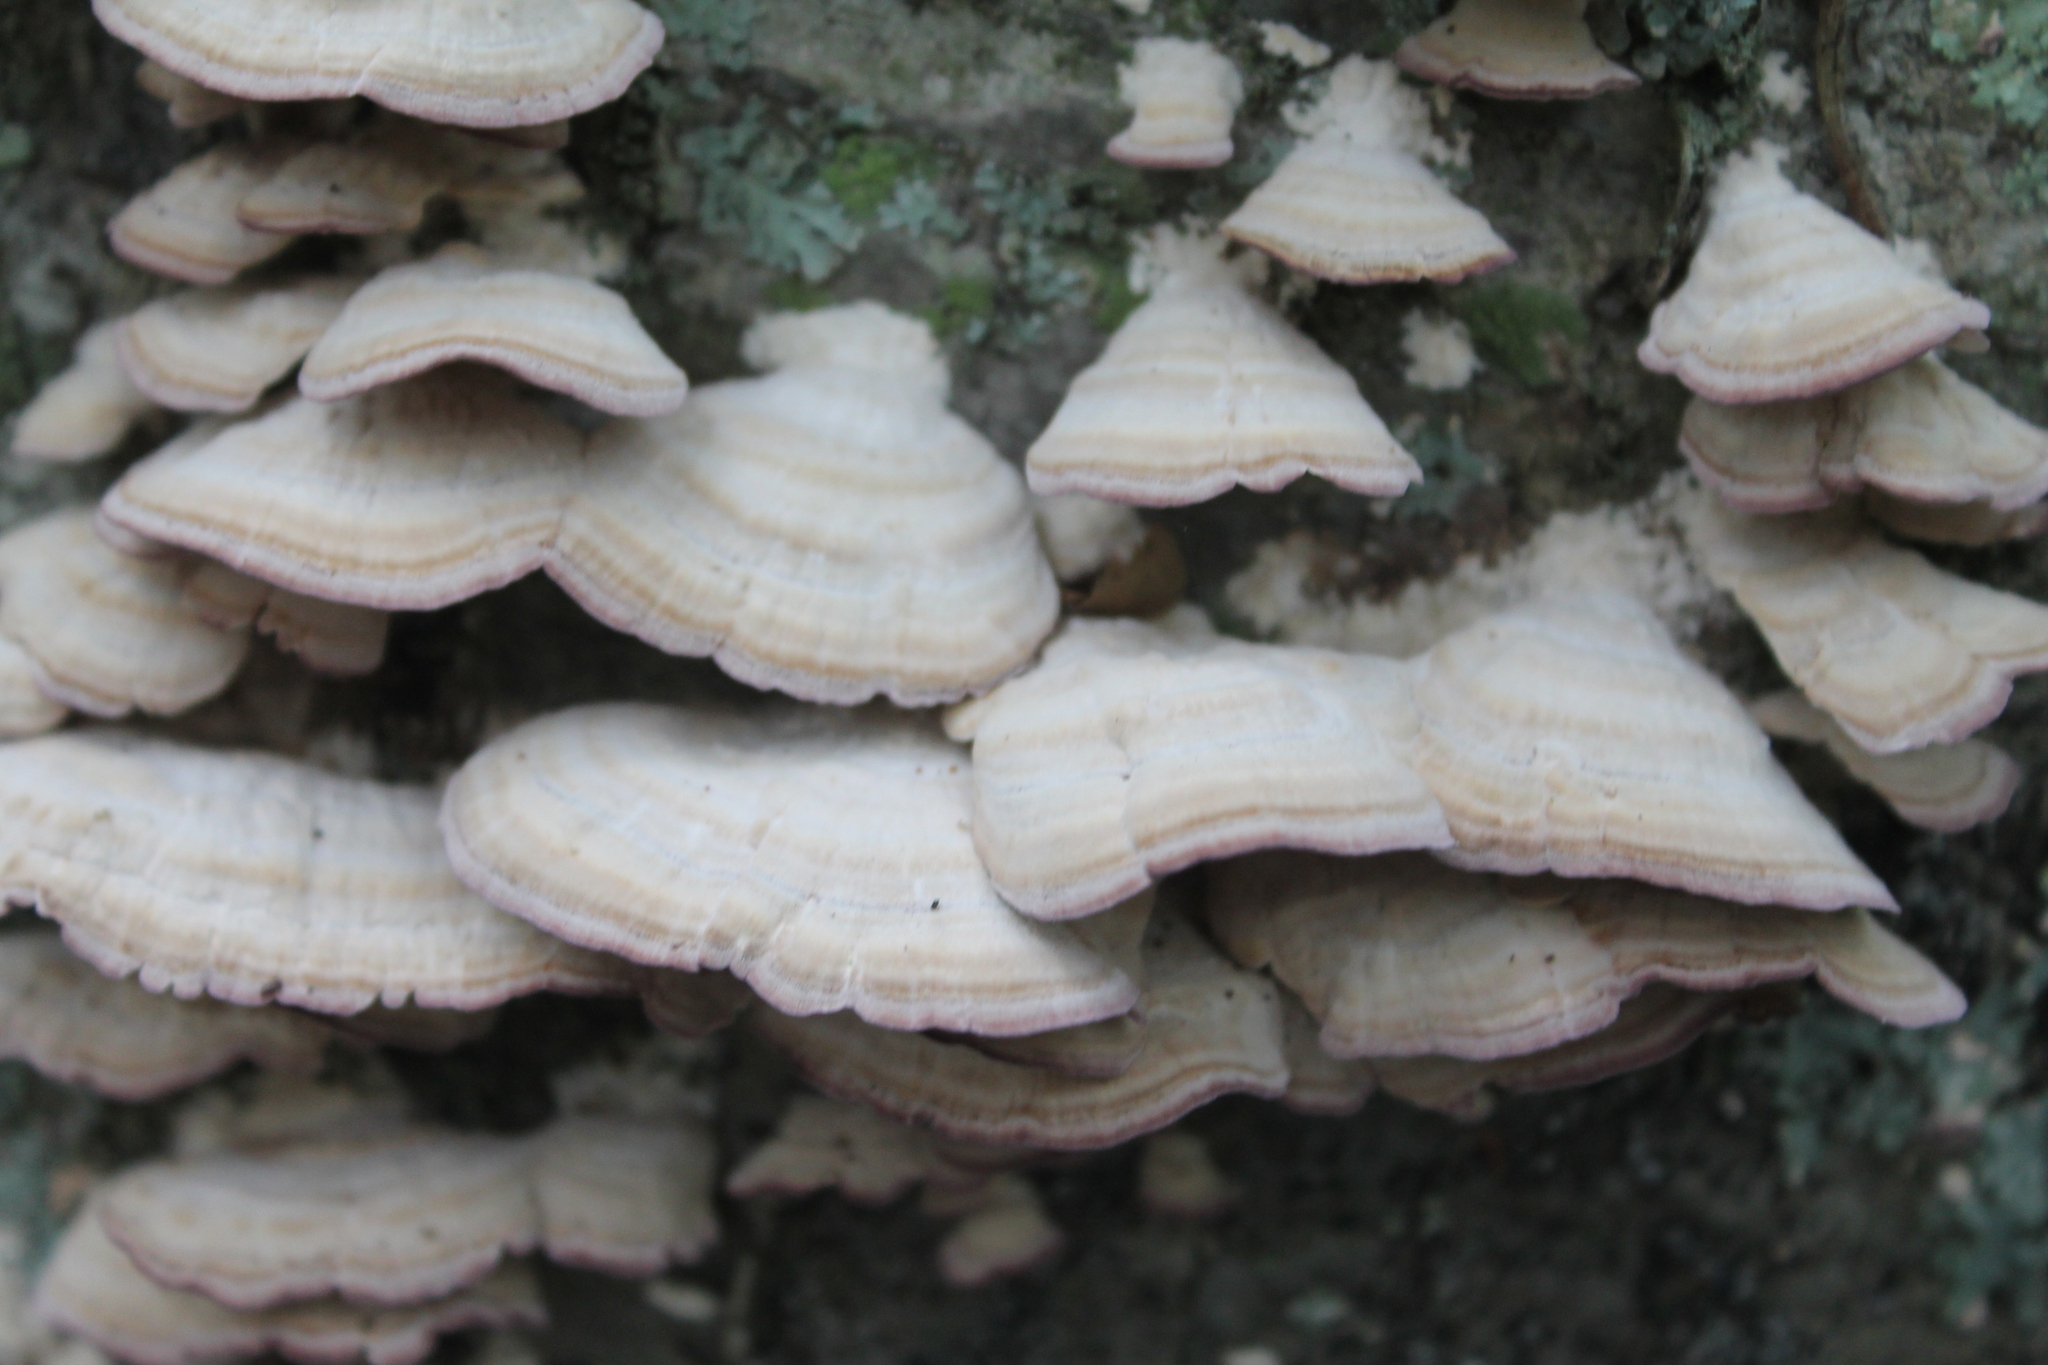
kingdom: Fungi
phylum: Basidiomycota
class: Agaricomycetes
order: Hymenochaetales
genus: Trichaptum
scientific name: Trichaptum biforme
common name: Violet-toothed polypore
